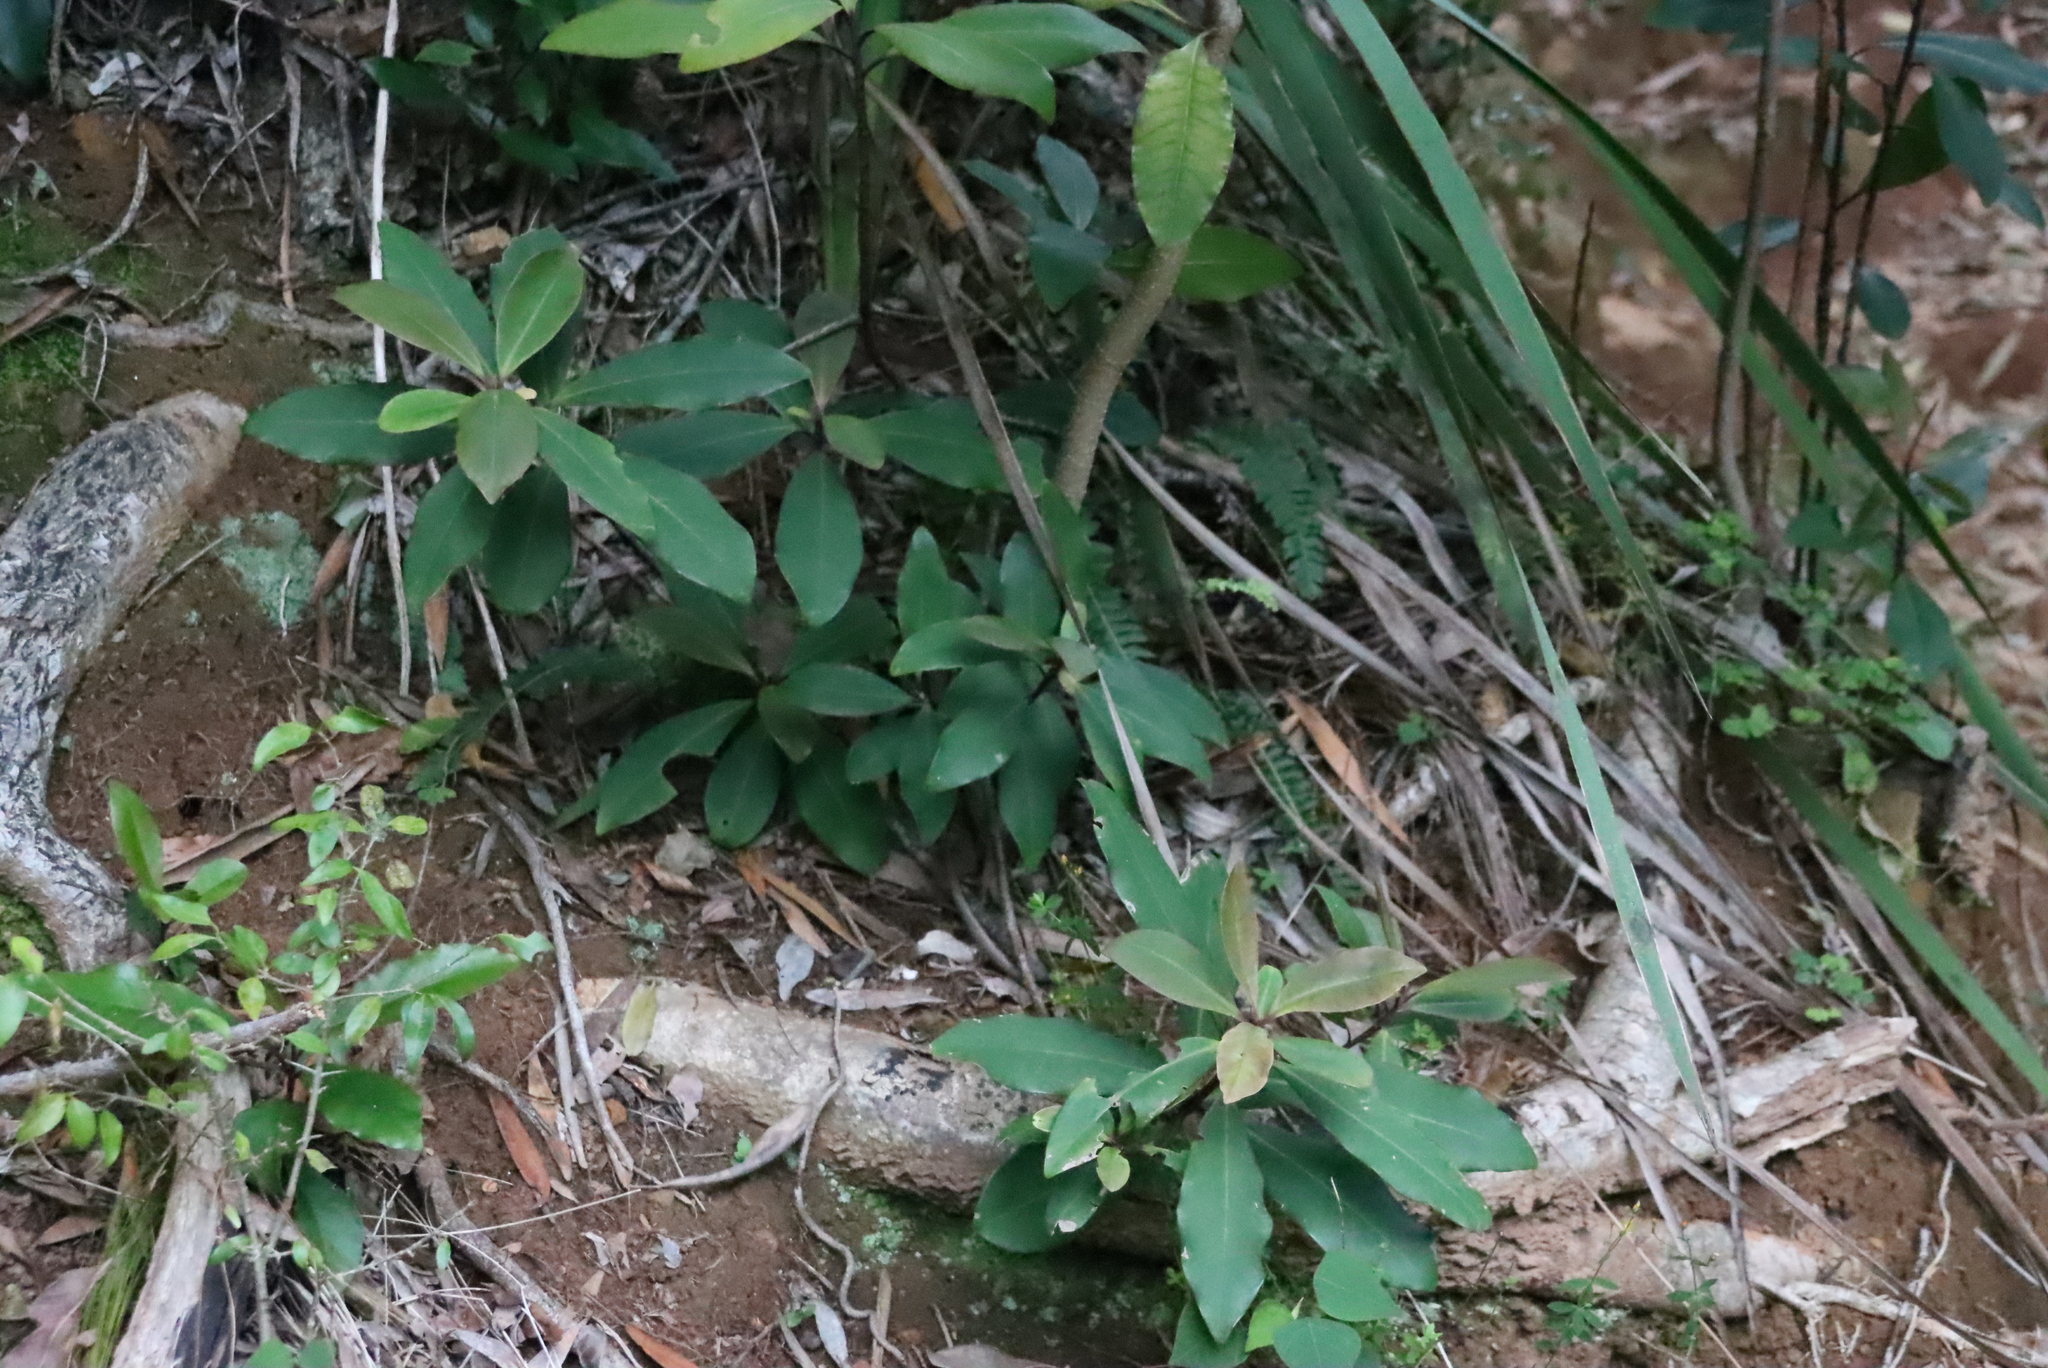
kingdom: Plantae
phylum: Tracheophyta
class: Magnoliopsida
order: Ericales
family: Primulaceae
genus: Myrsine
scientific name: Myrsine melanophloeos
